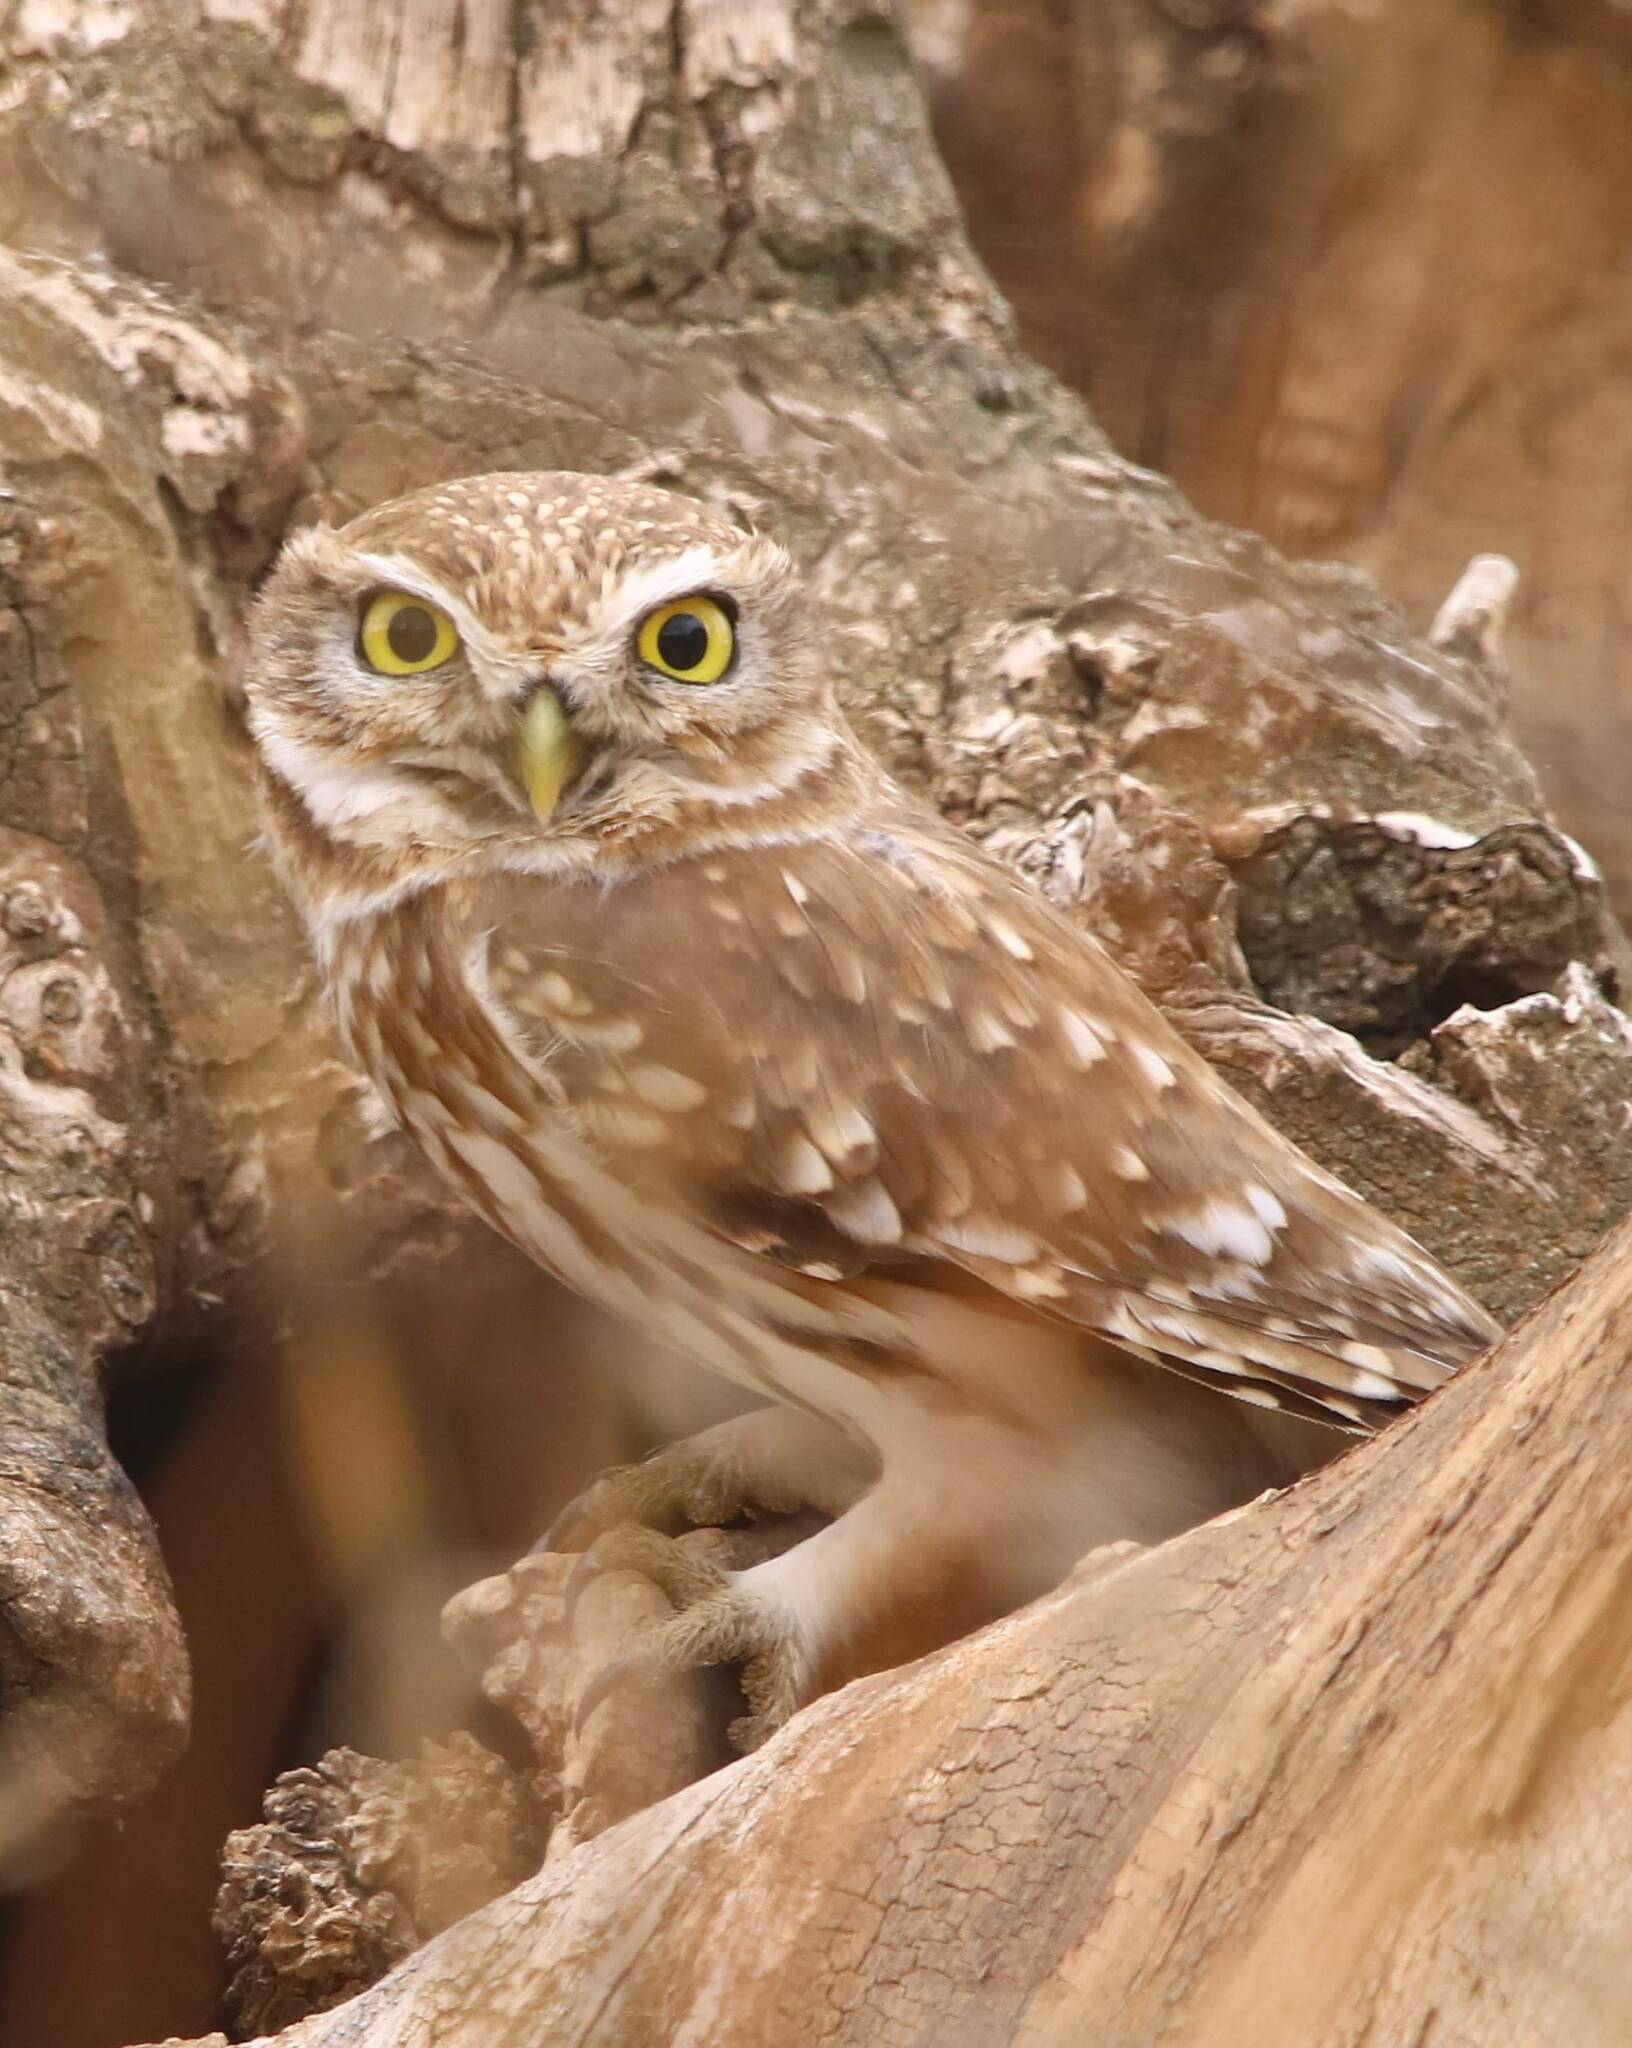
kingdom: Animalia
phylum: Chordata
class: Aves
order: Strigiformes
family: Strigidae
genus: Athene
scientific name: Athene noctua
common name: Little owl
